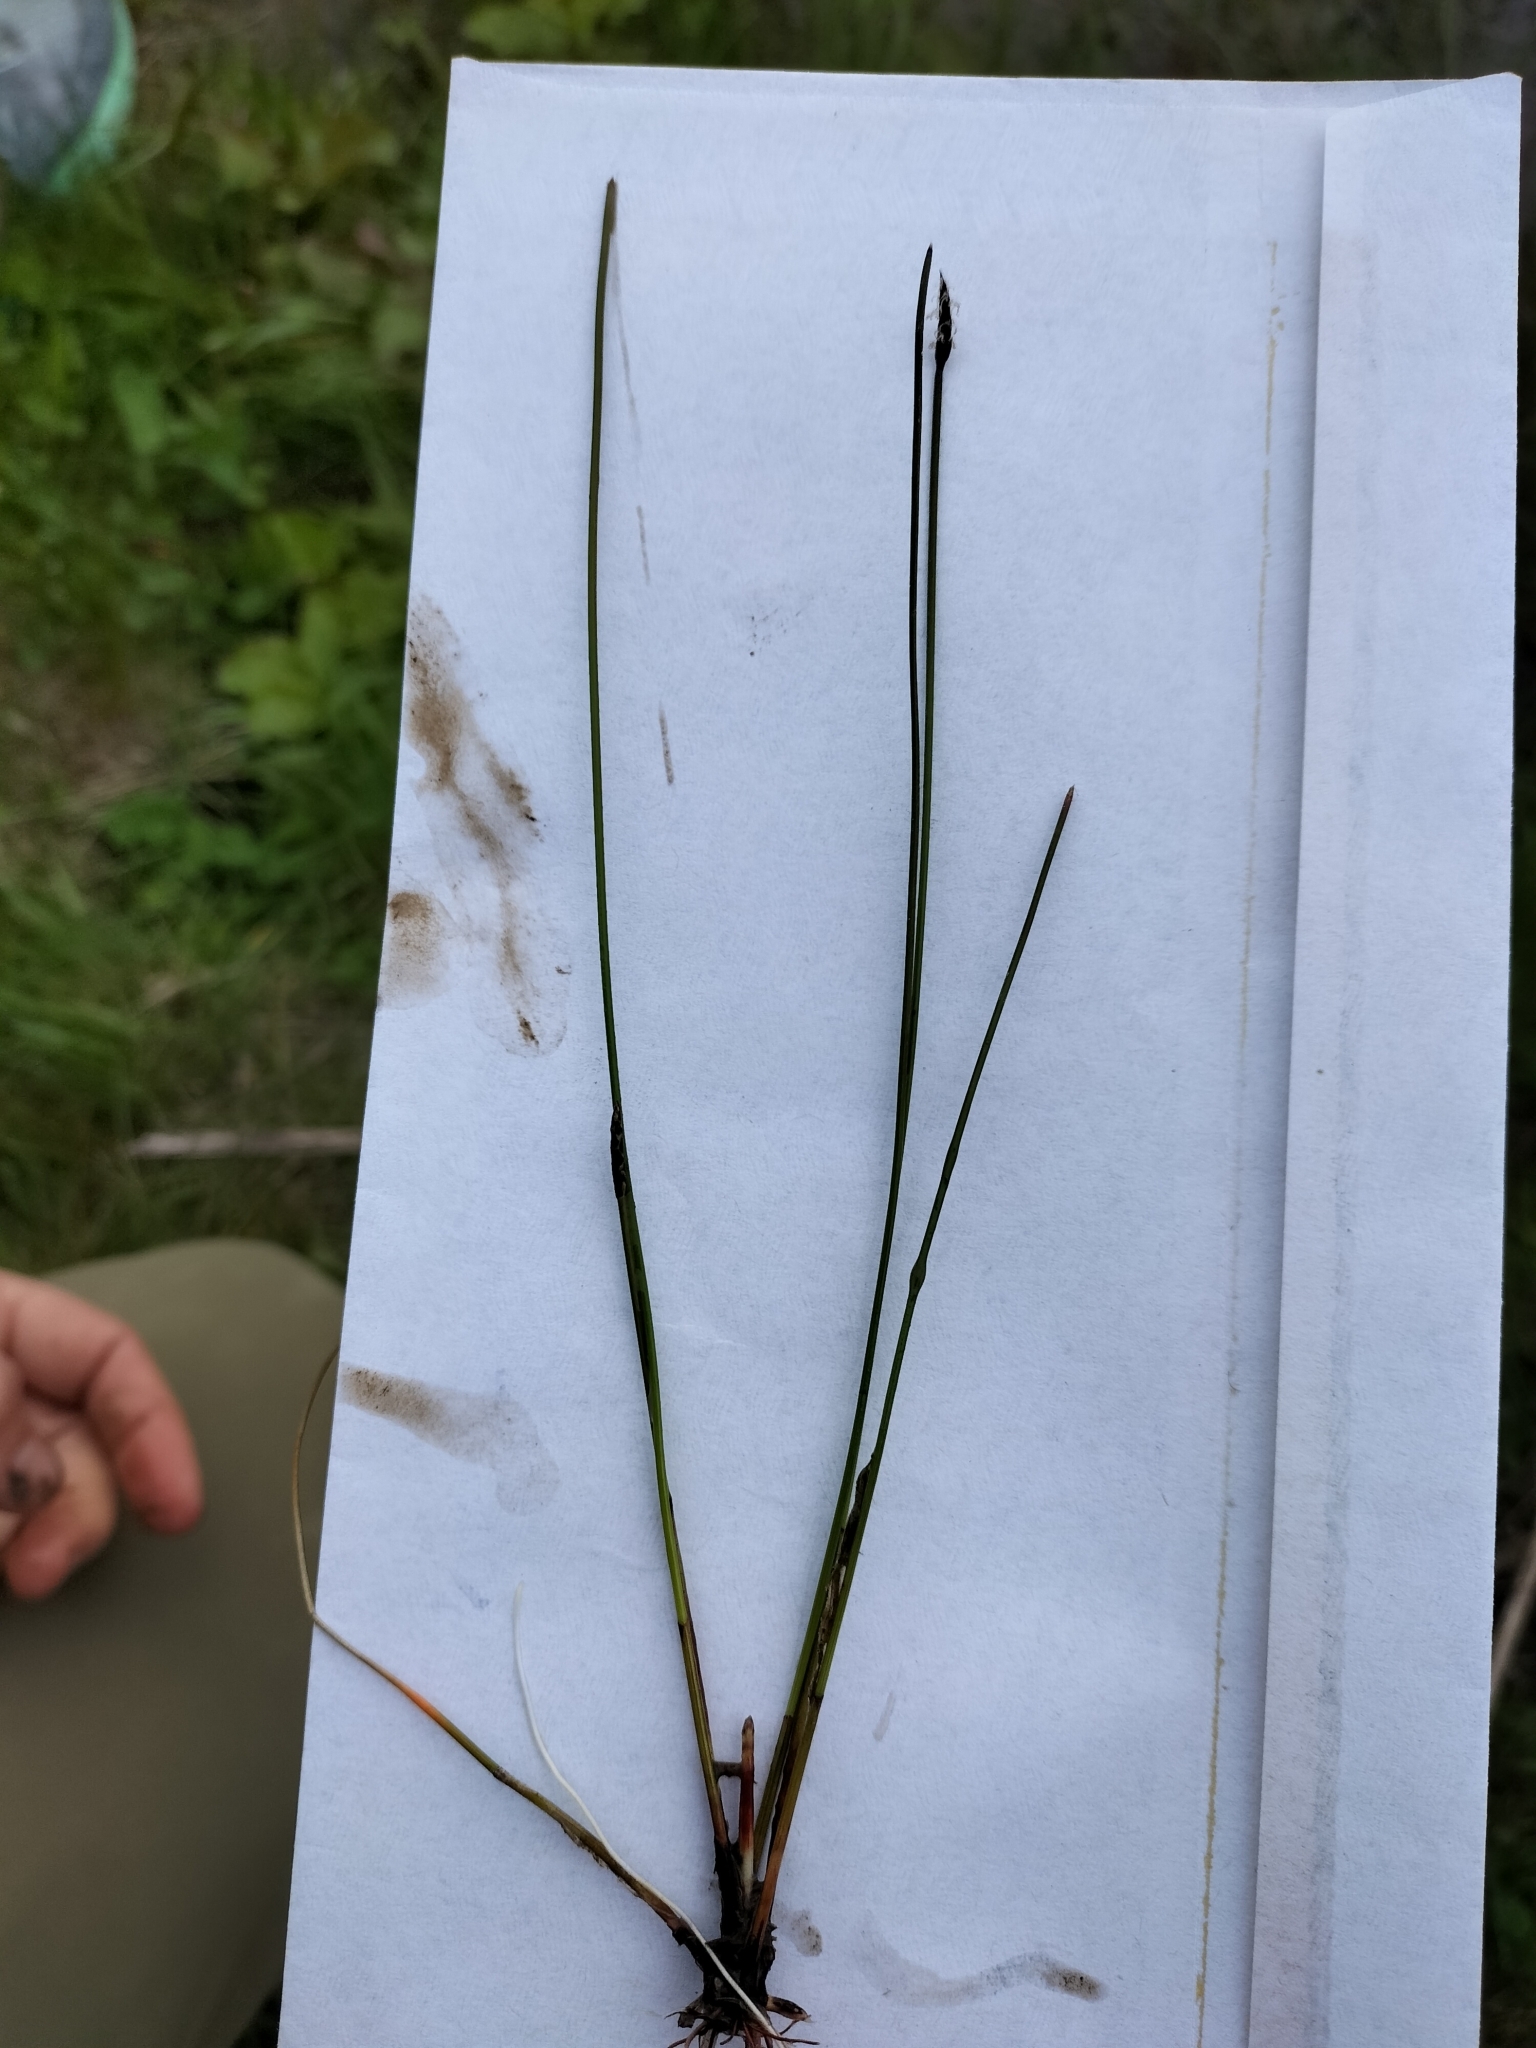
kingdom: Plantae
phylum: Tracheophyta
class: Liliopsida
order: Poales
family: Cyperaceae
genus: Eleocharis
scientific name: Eleocharis gracilis
